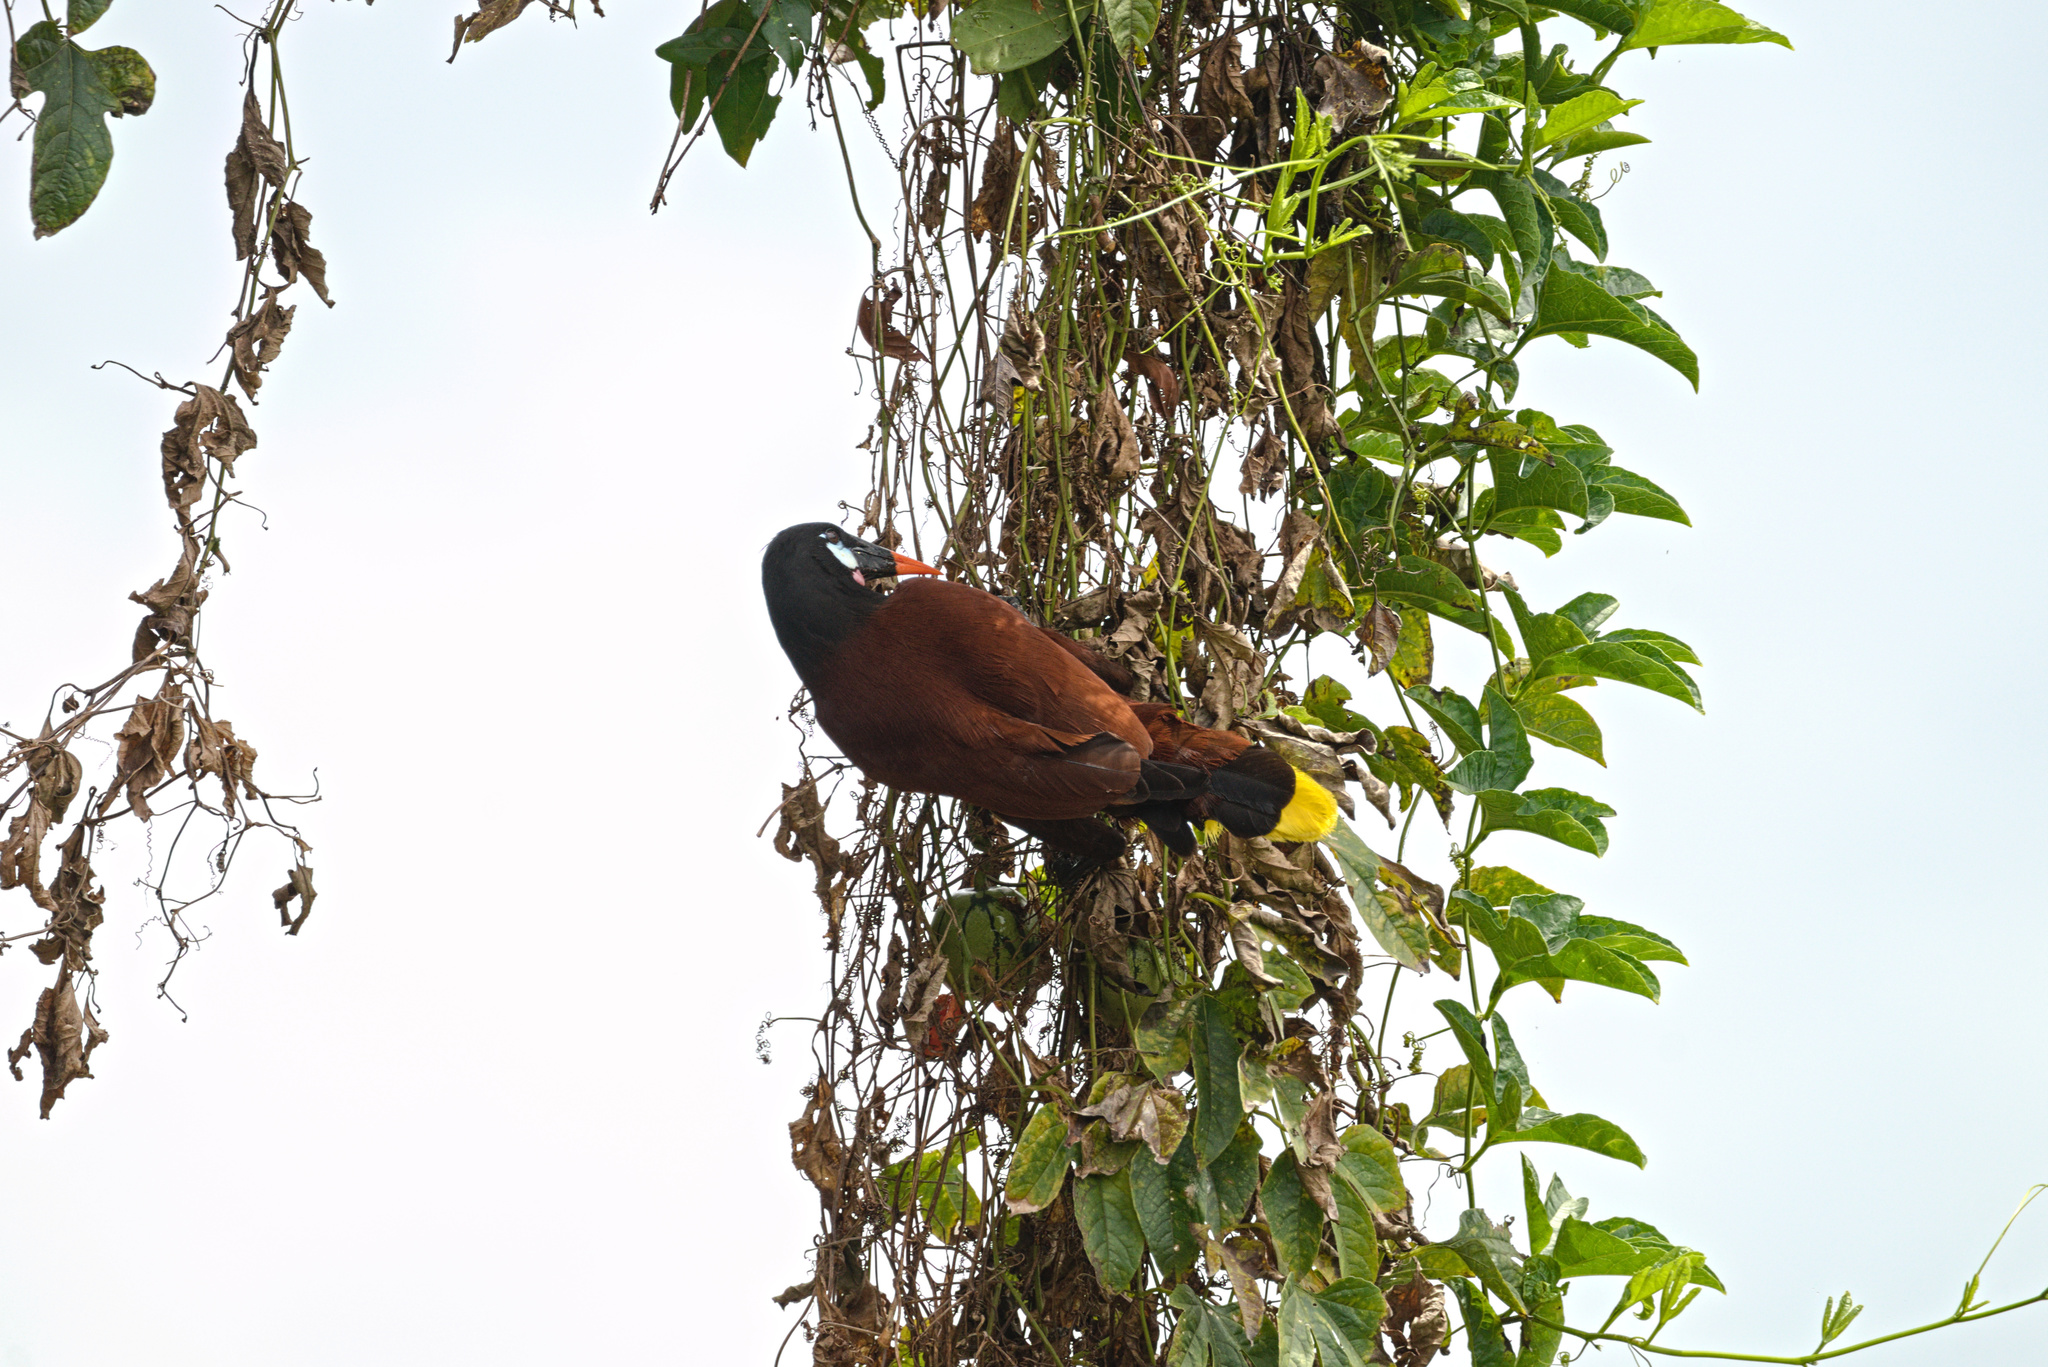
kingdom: Animalia
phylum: Chordata
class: Aves
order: Passeriformes
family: Icteridae
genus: Psarocolius
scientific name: Psarocolius montezuma
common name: Montezuma oropendola
